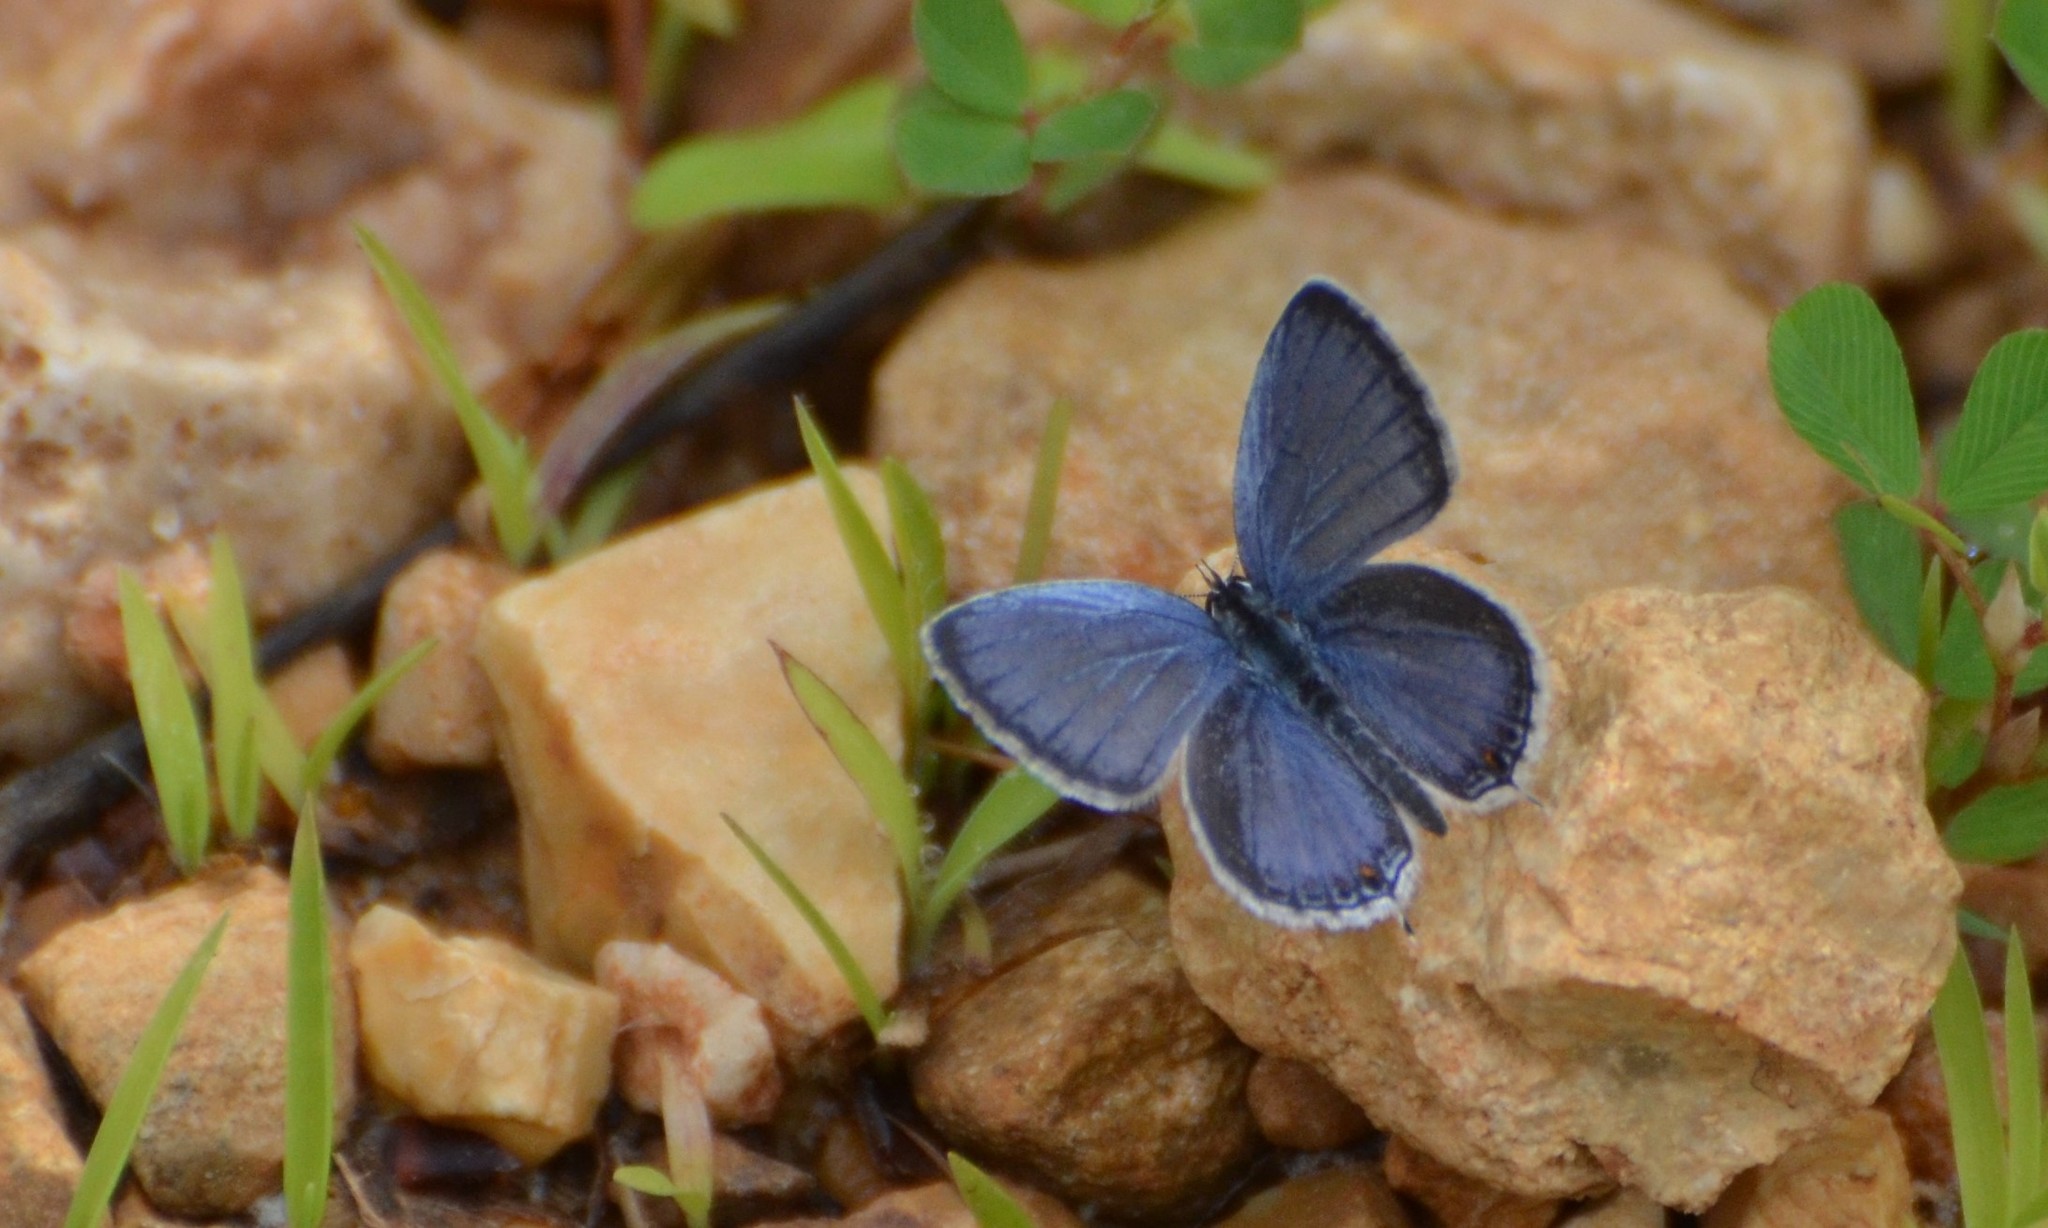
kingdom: Animalia
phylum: Arthropoda
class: Insecta
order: Lepidoptera
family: Lycaenidae
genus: Elkalyce
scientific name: Elkalyce comyntas
